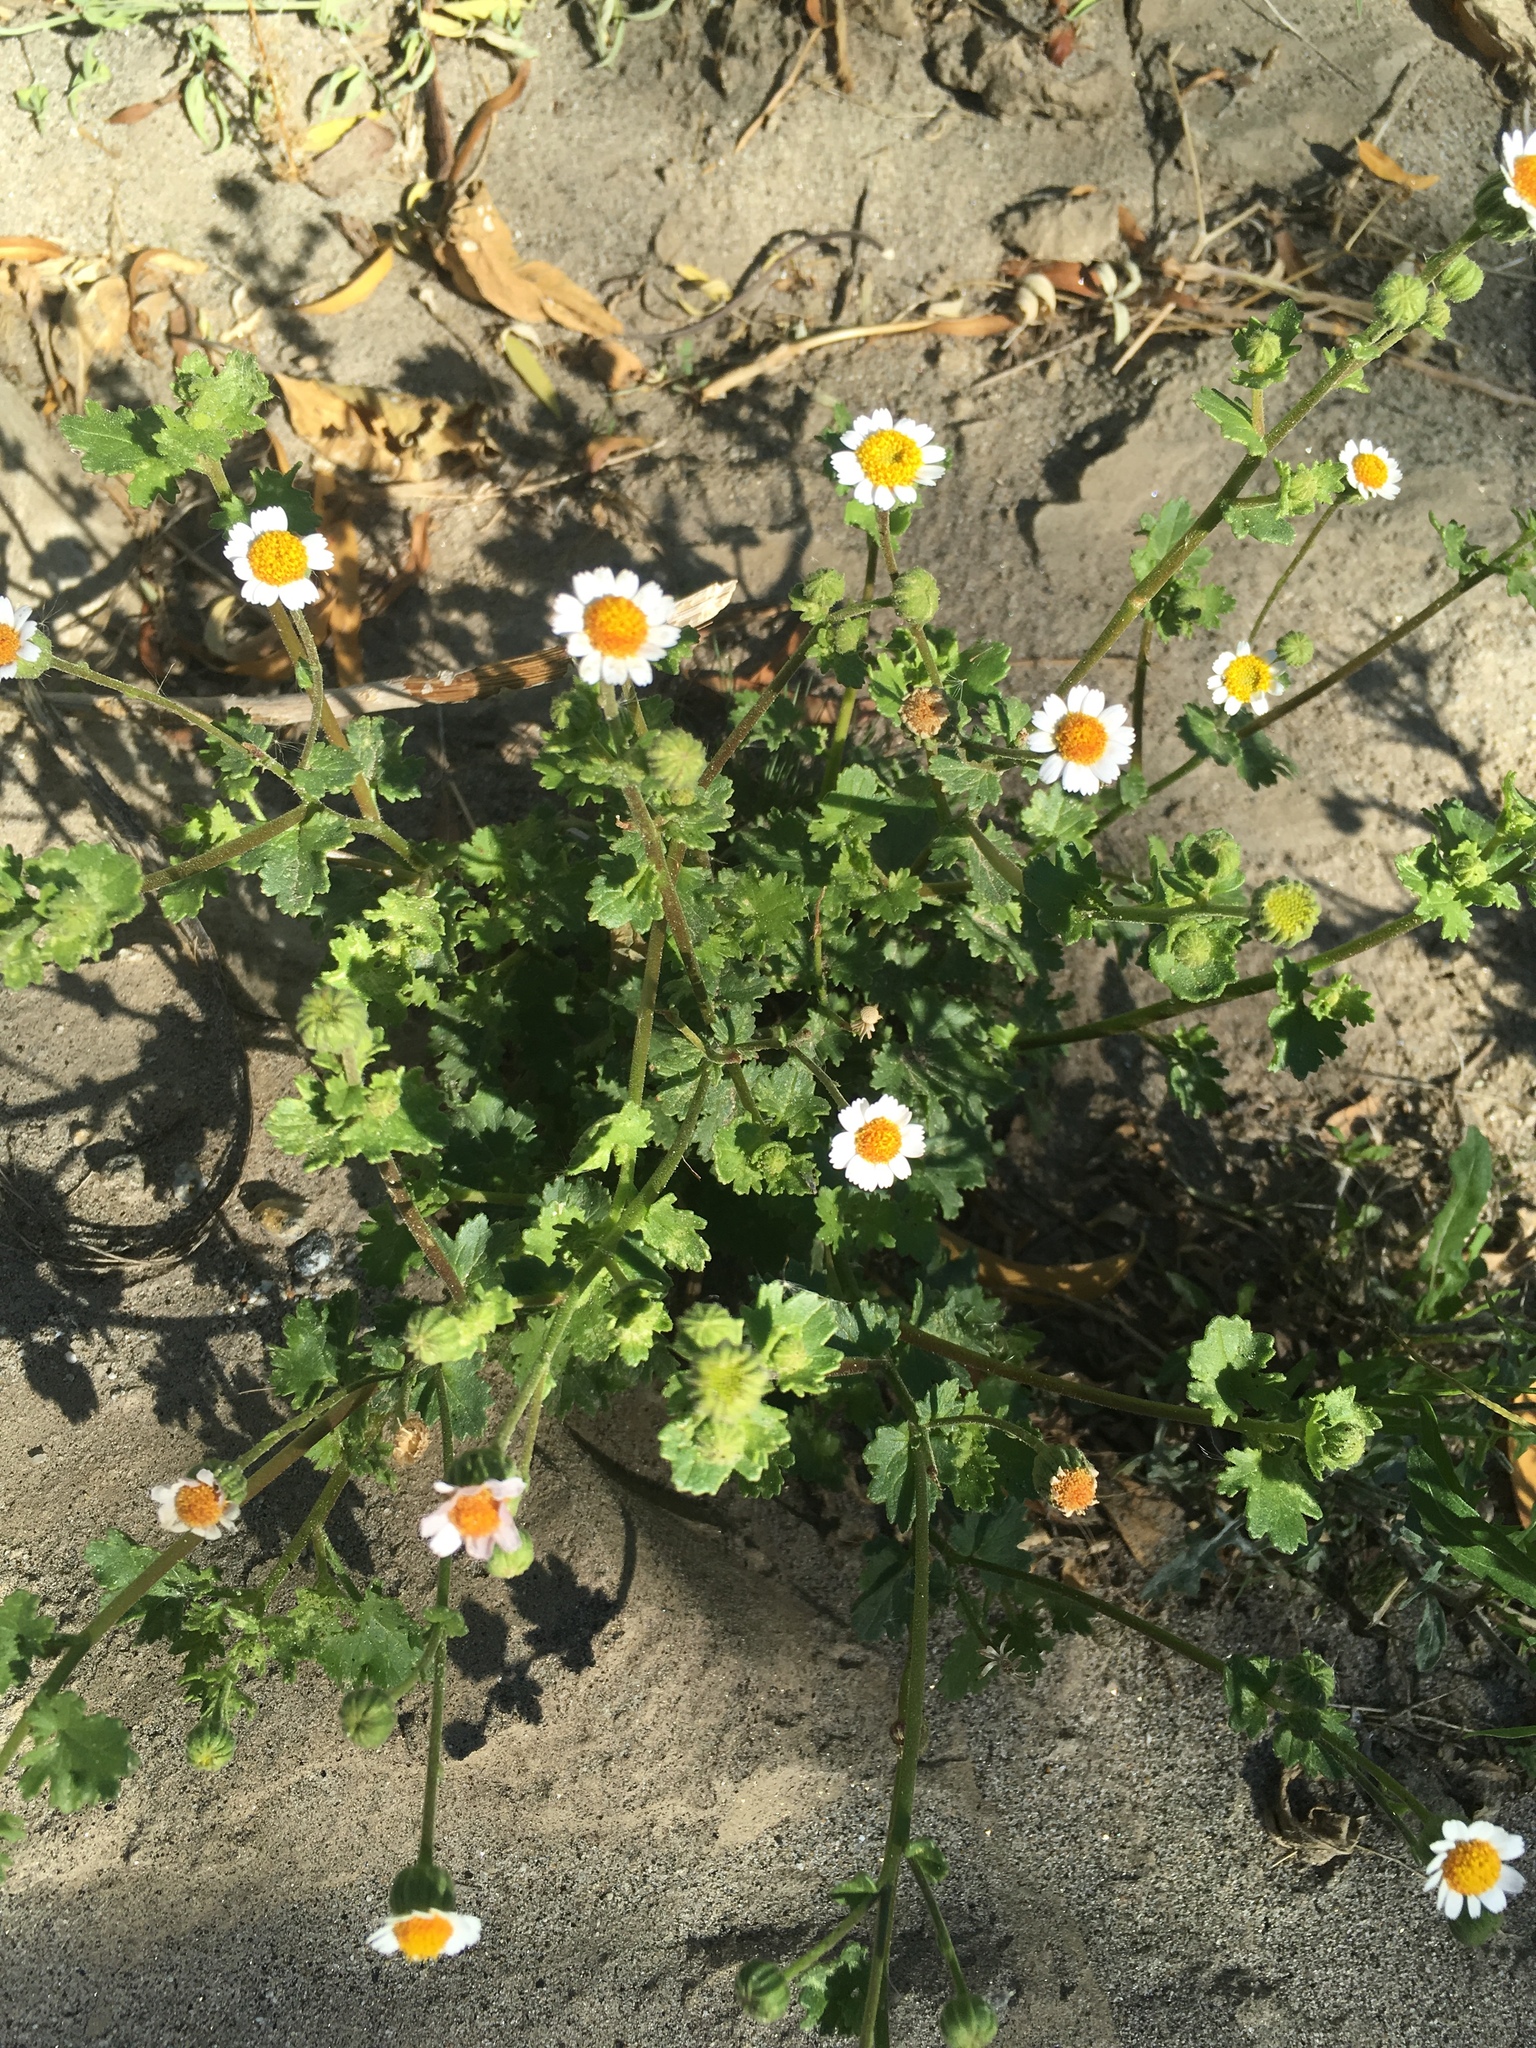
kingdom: Plantae
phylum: Tracheophyta
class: Magnoliopsida
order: Asterales
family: Asteraceae
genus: Laphamia
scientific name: Laphamia emoryi
